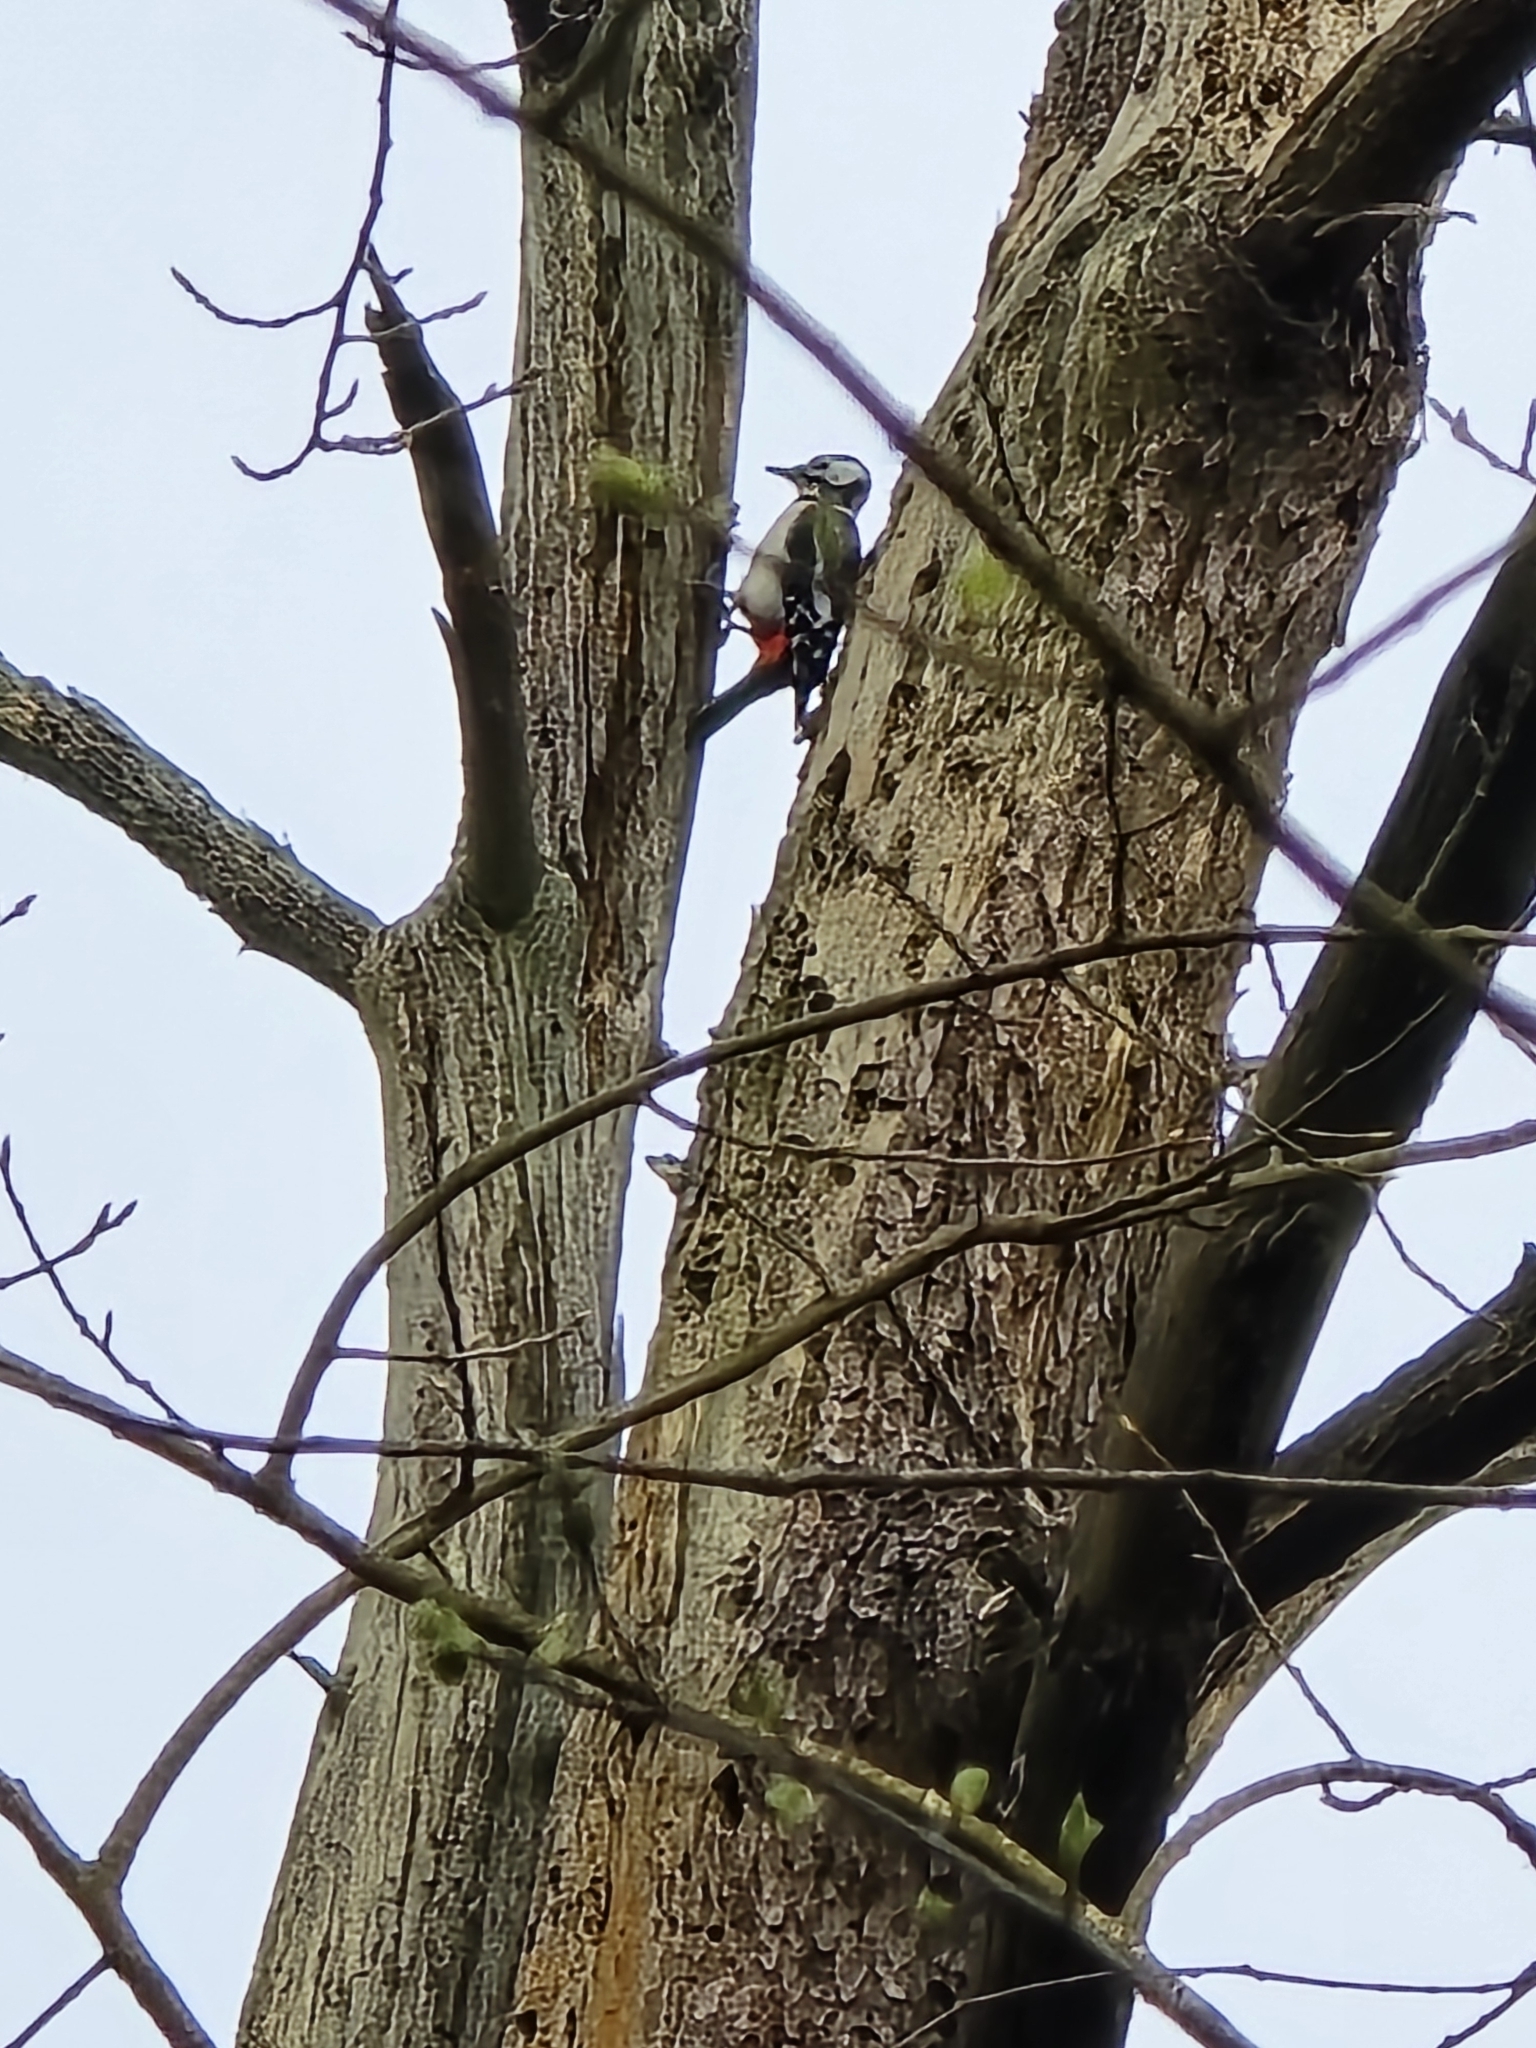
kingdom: Animalia
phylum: Chordata
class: Aves
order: Piciformes
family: Picidae
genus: Dendrocopos
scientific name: Dendrocopos major
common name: Great spotted woodpecker
